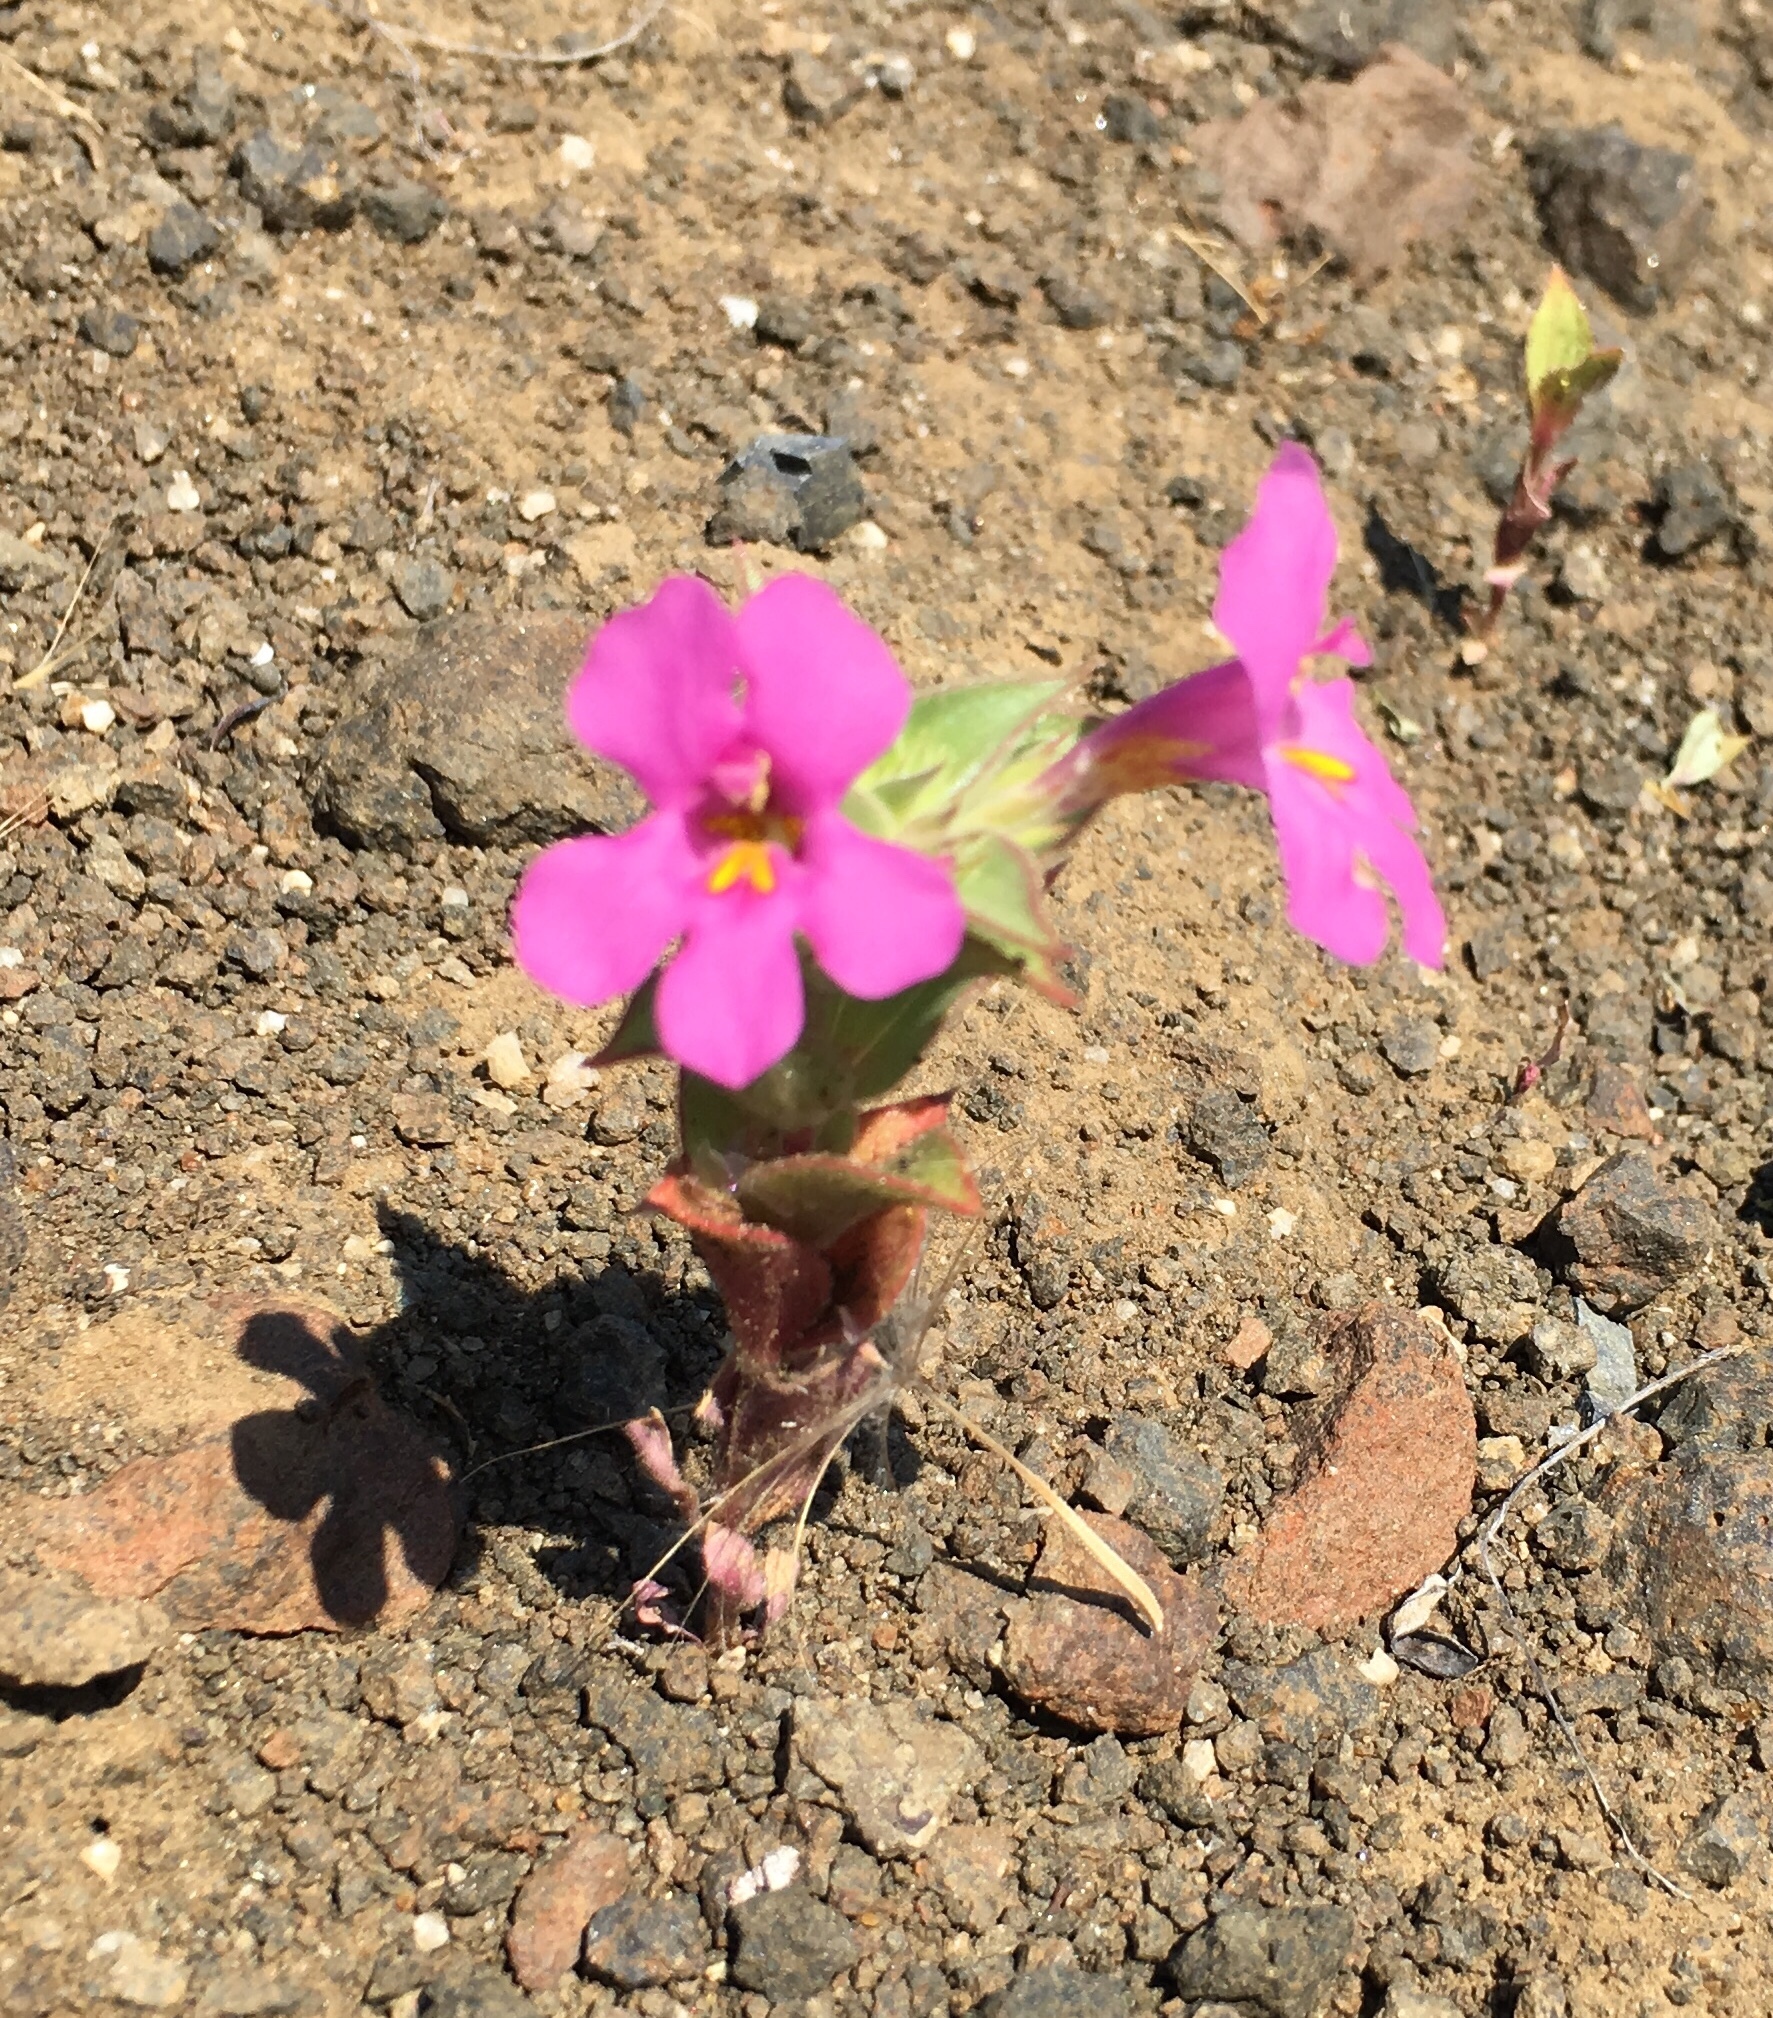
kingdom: Plantae
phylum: Tracheophyta
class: Magnoliopsida
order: Lamiales
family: Phrymaceae
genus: Diplacus
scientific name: Diplacus cusickioides
